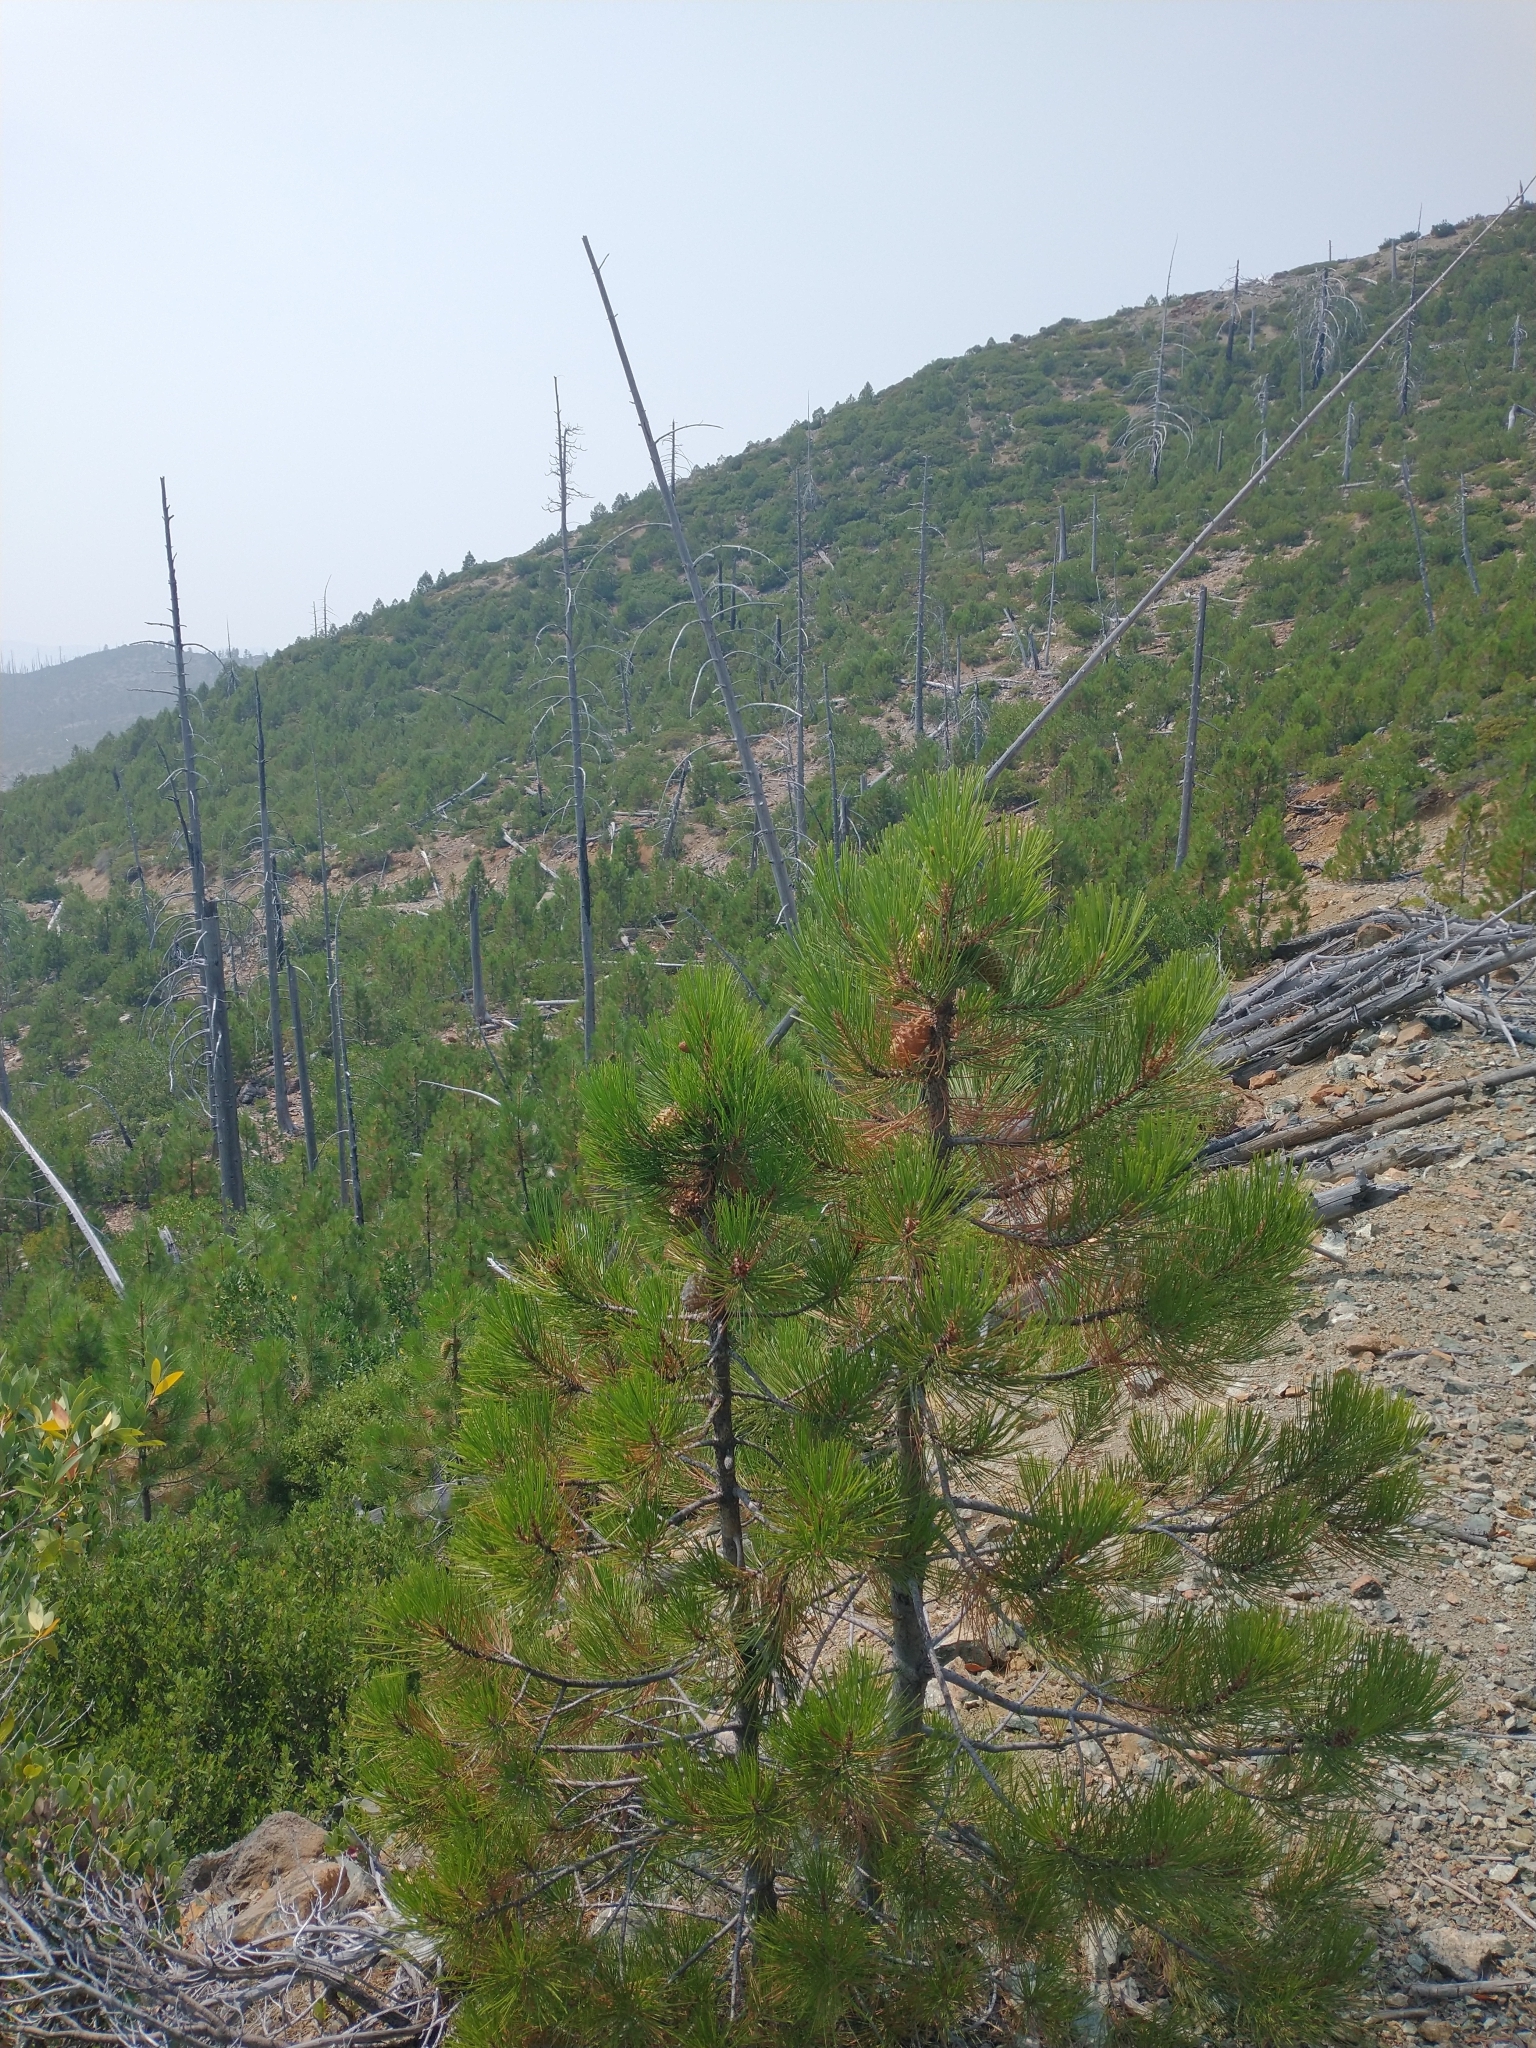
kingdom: Plantae
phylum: Tracheophyta
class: Pinopsida
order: Pinales
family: Pinaceae
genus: Pinus
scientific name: Pinus attenuata
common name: Knobcone pine
